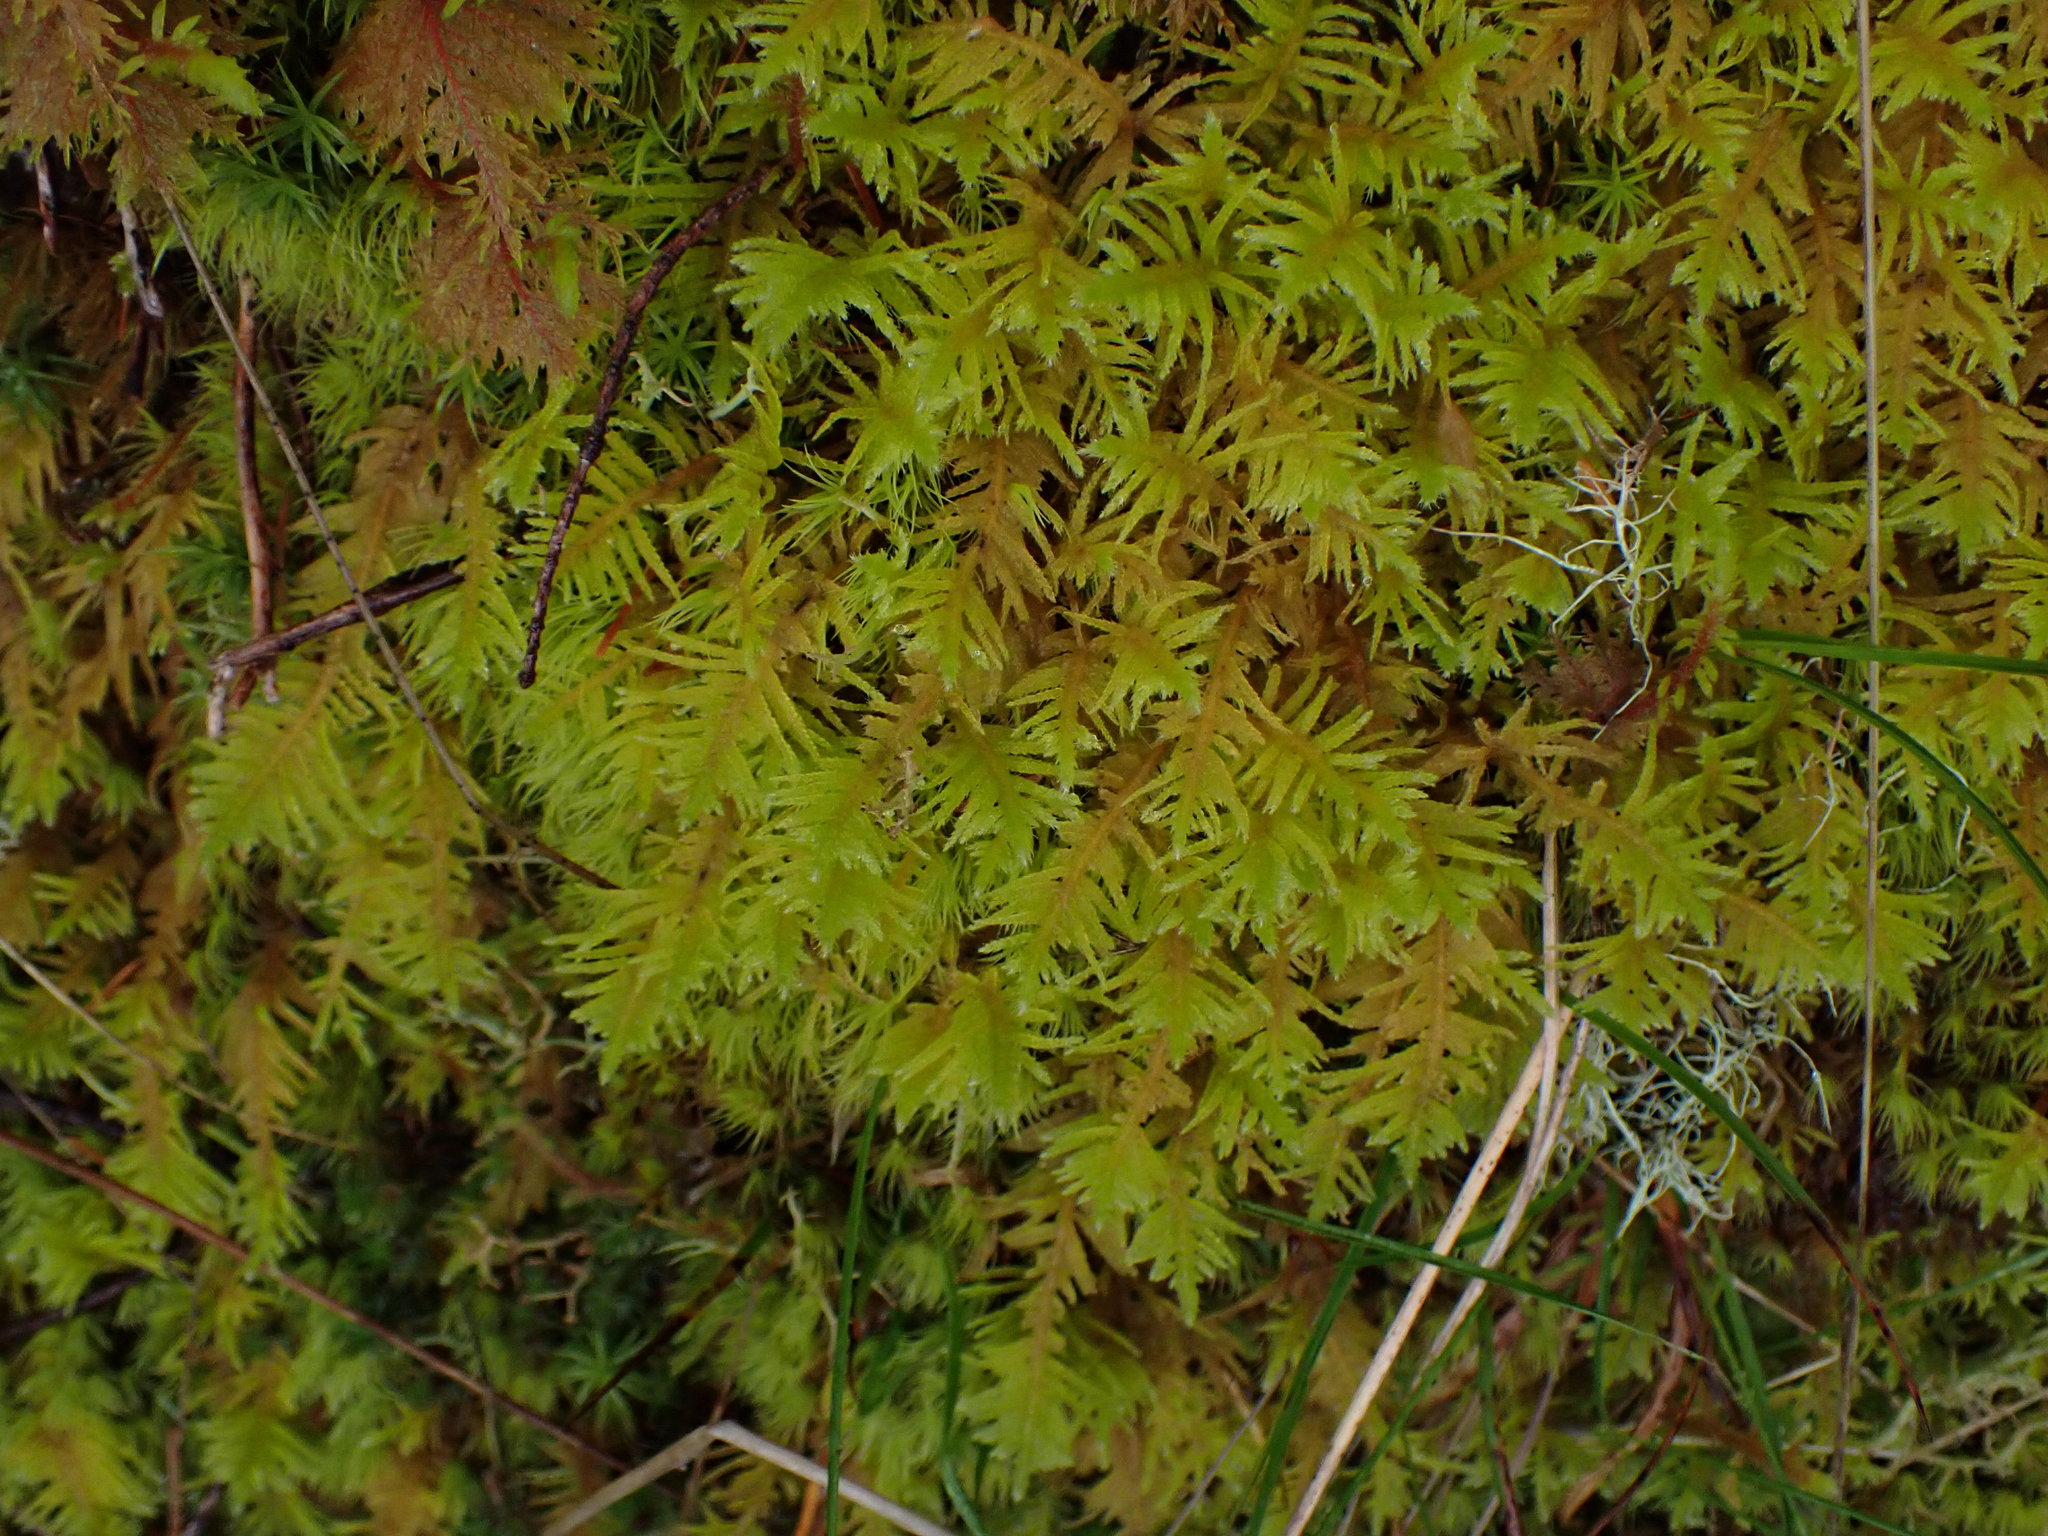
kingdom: Plantae
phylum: Bryophyta
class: Bryopsida
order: Hypnales
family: Brachytheciaceae
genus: Kindbergia
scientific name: Kindbergia oregana
